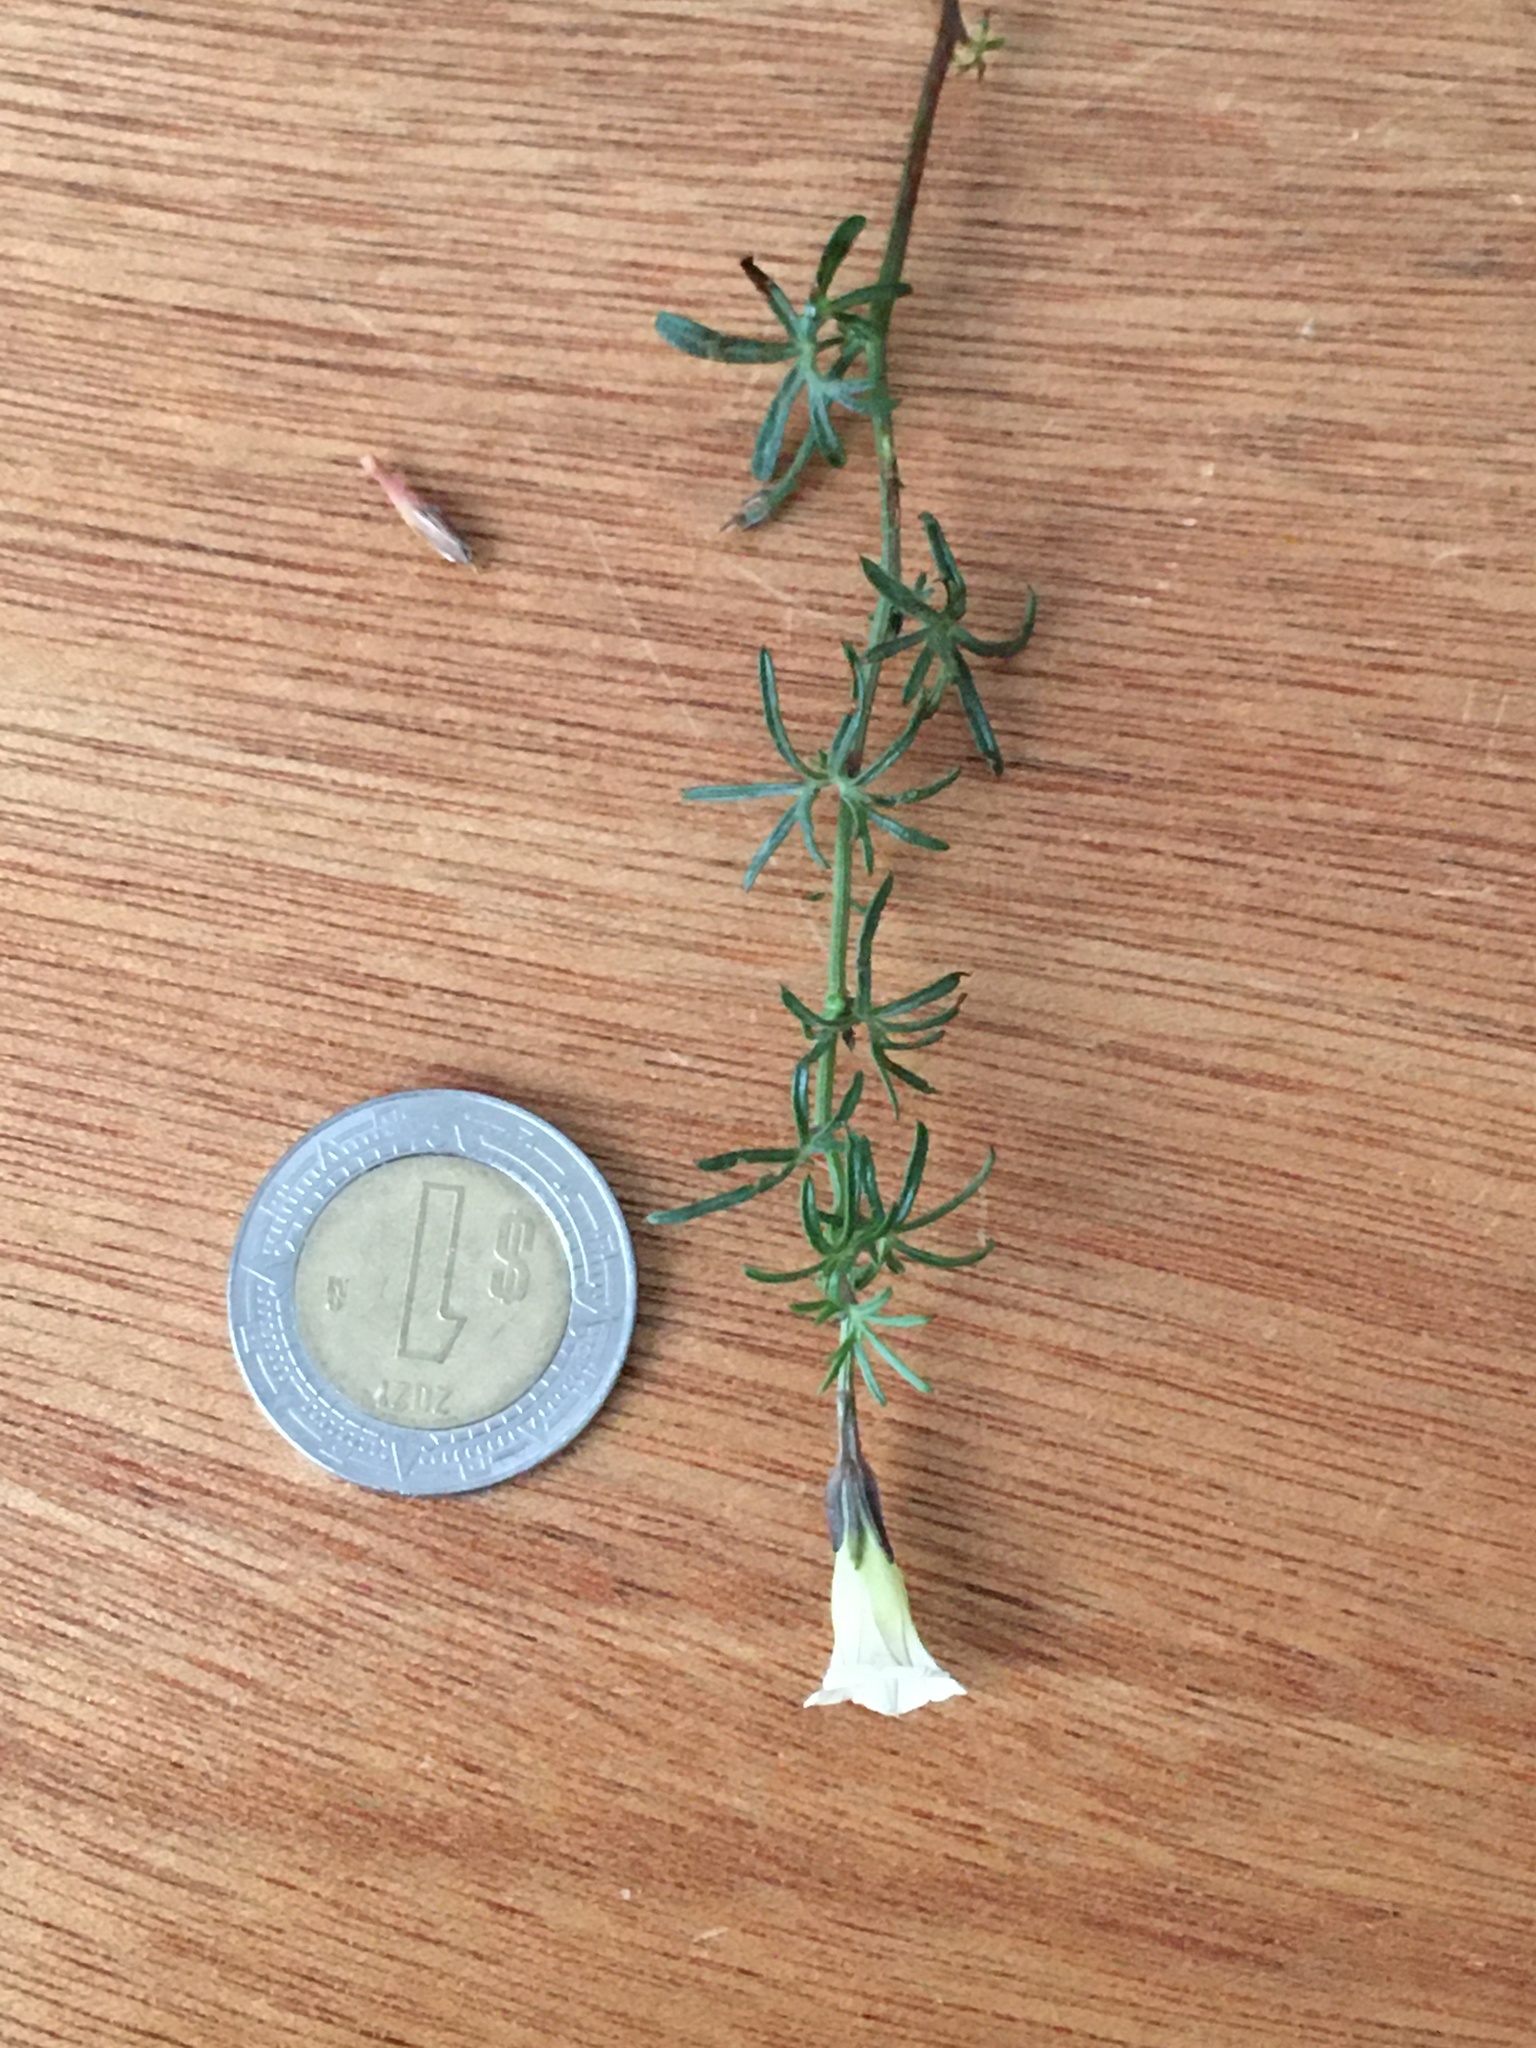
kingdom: Plantae
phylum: Tracheophyta
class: Magnoliopsida
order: Solanales
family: Convolvulaceae
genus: Ipomoea
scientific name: Ipomoea costellata
